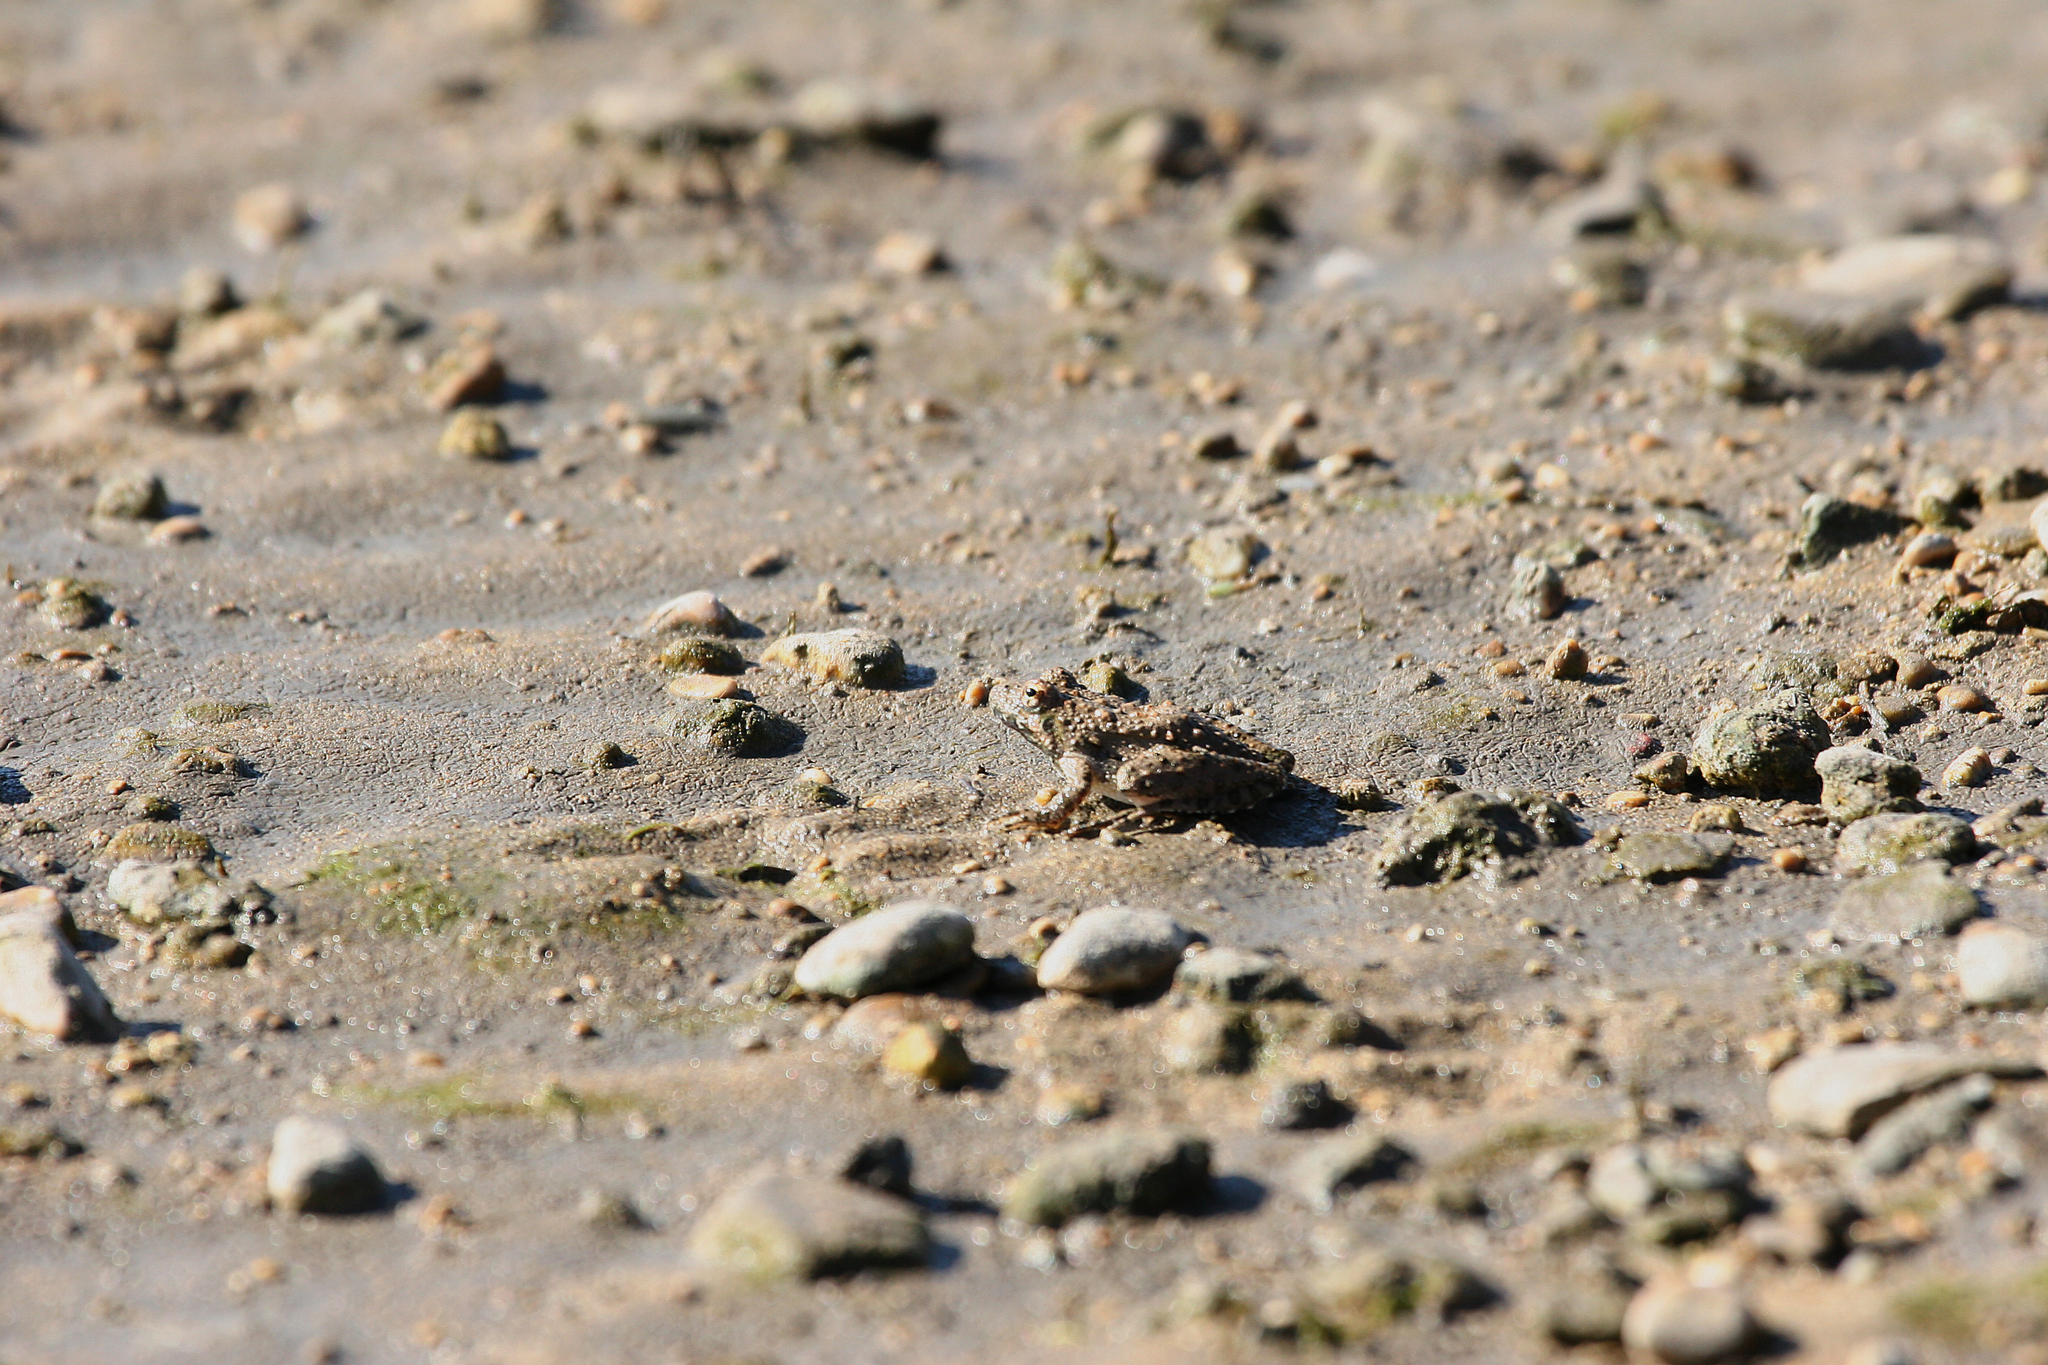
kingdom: Animalia
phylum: Chordata
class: Amphibia
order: Anura
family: Hylidae
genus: Acris
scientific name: Acris blanchardi
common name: Blanchard's cricket frog
